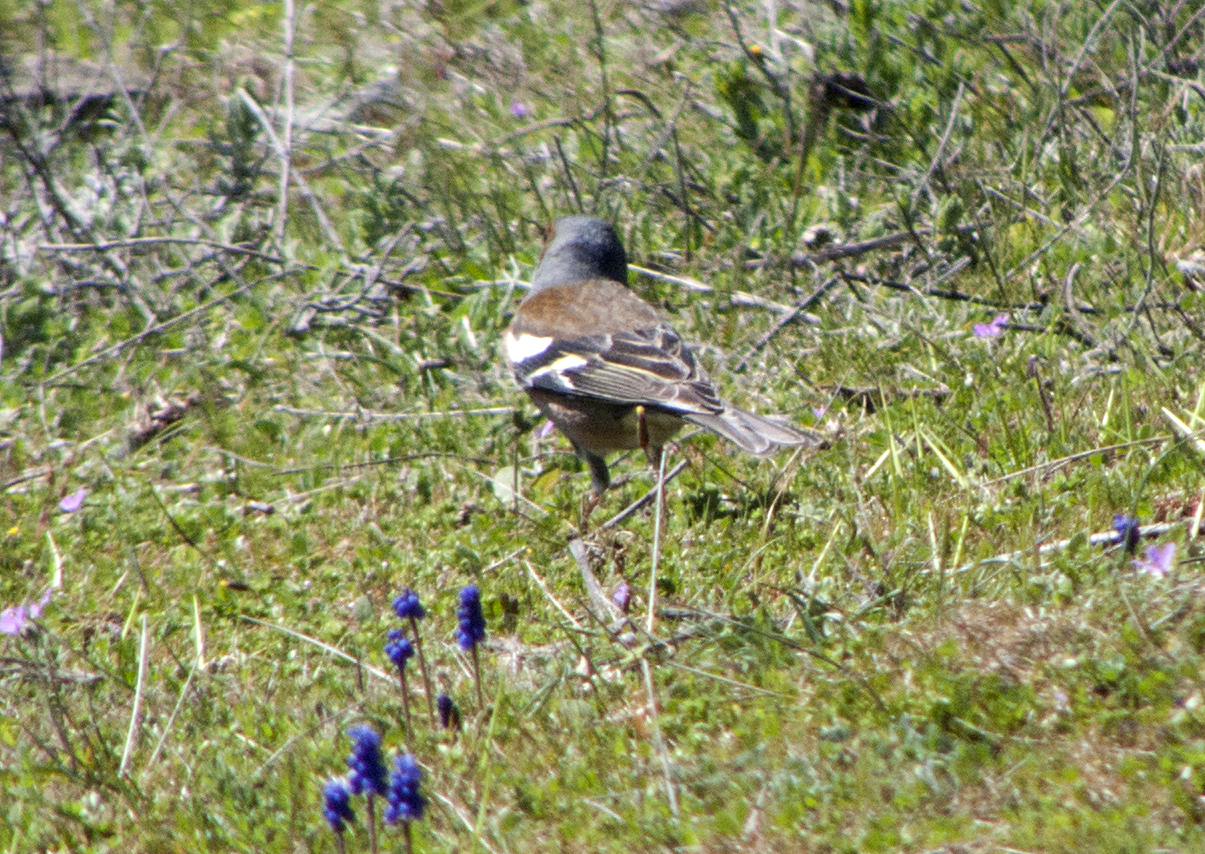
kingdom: Animalia
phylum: Chordata
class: Aves
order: Passeriformes
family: Fringillidae
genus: Fringilla
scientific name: Fringilla coelebs
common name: Common chaffinch
